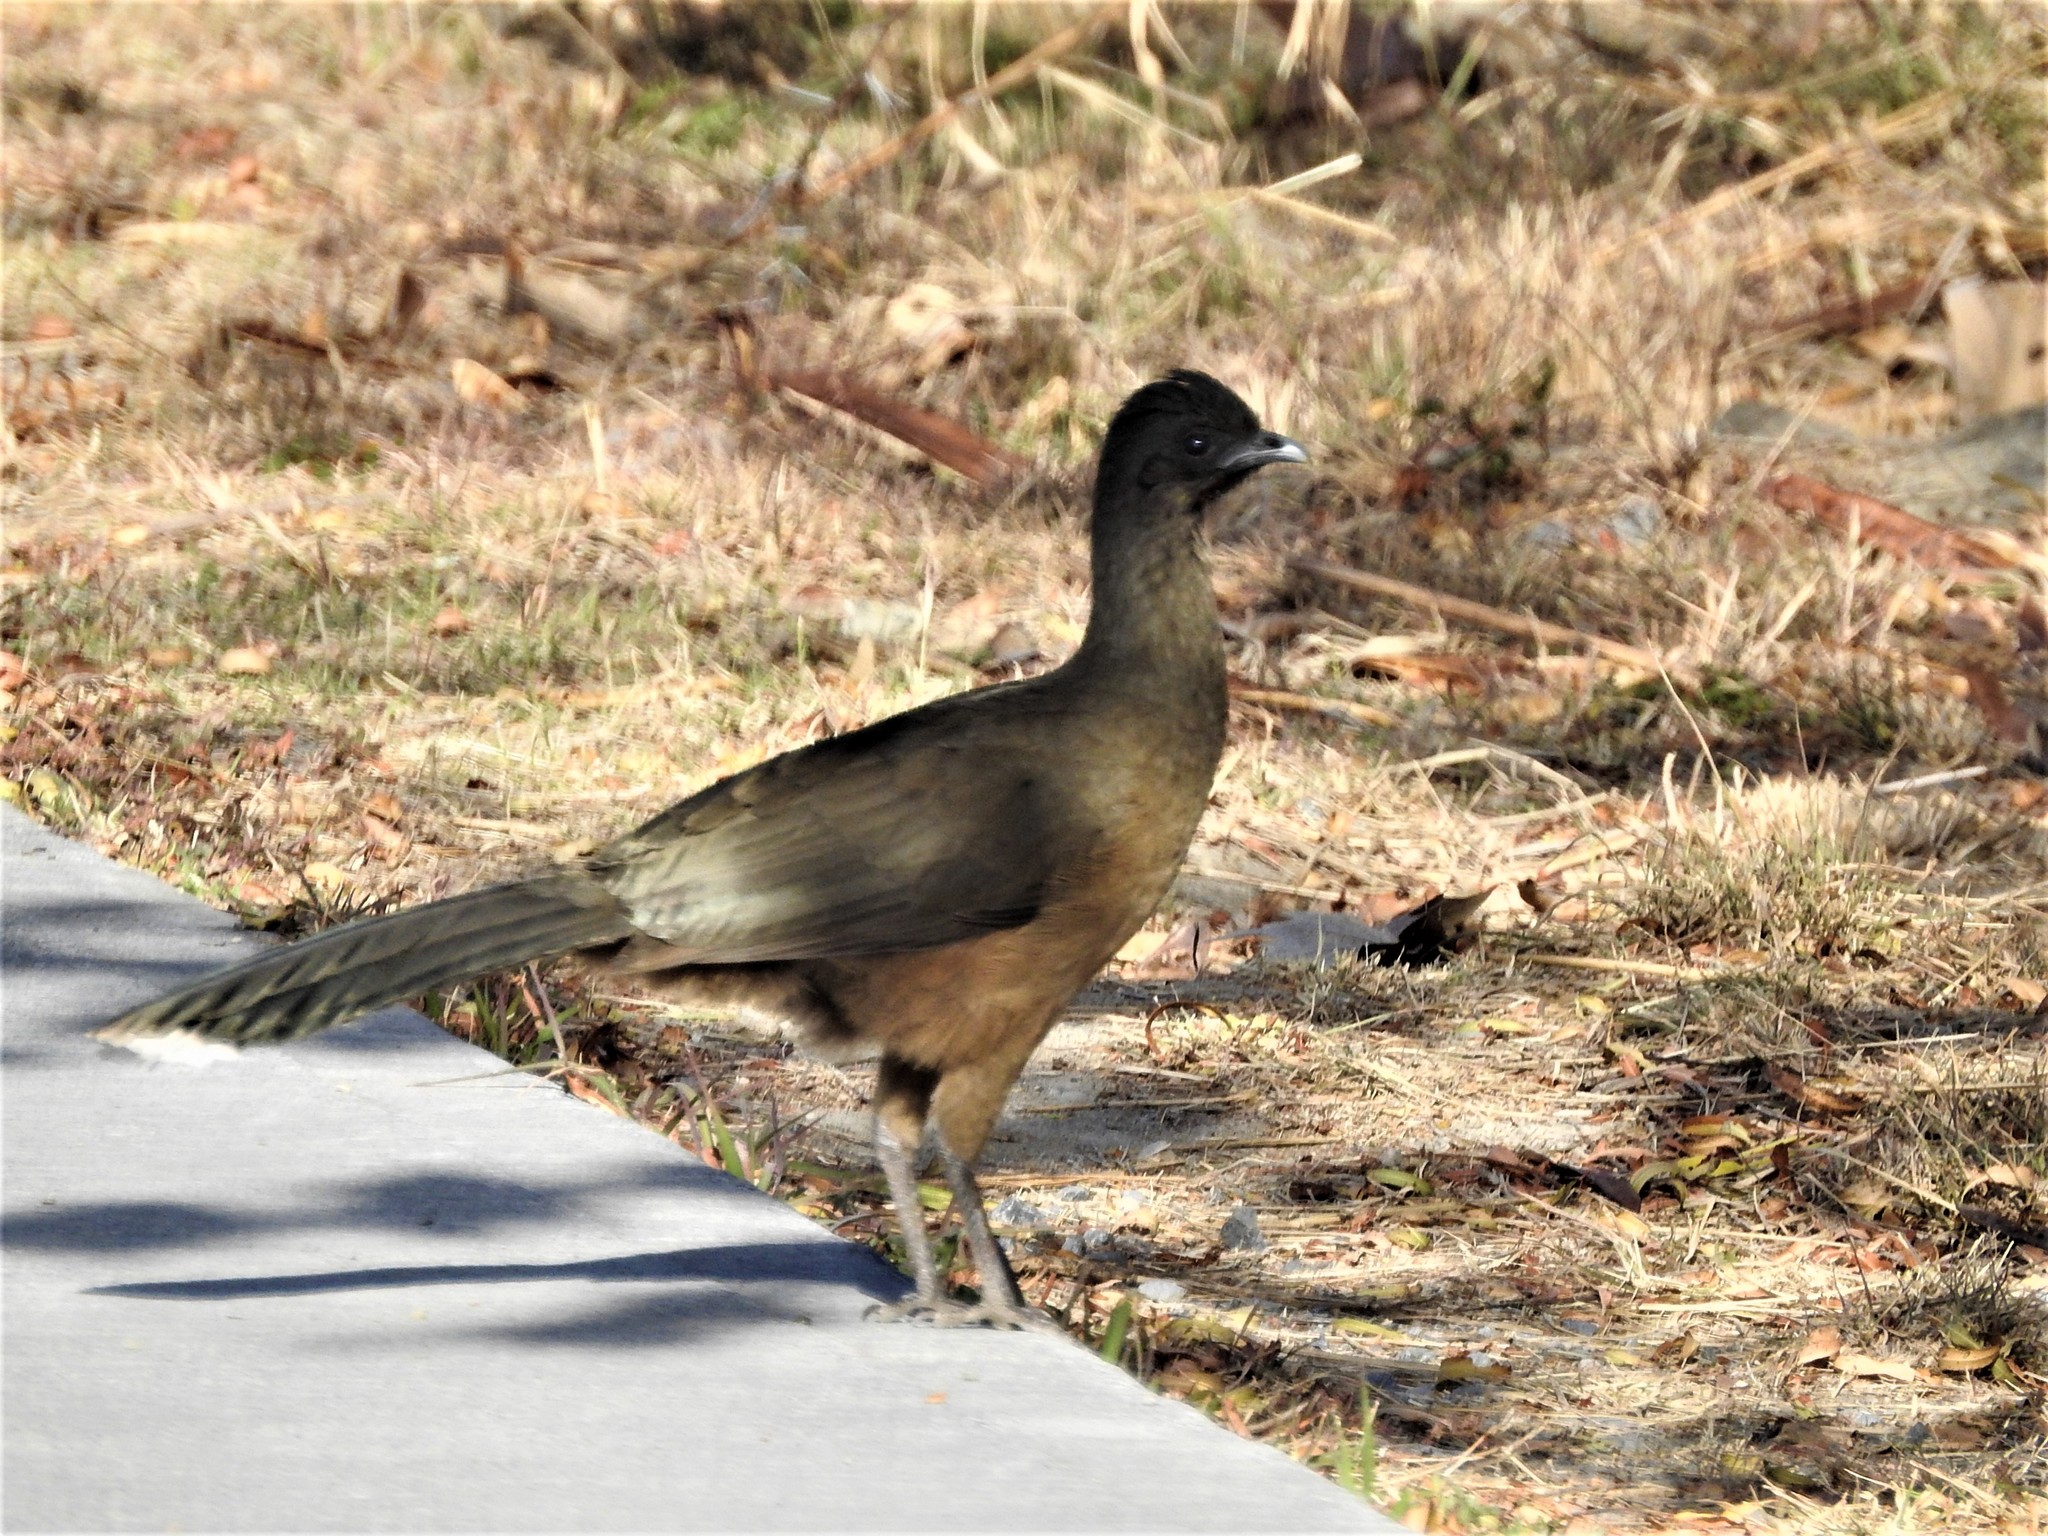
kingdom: Animalia
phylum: Chordata
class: Aves
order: Galliformes
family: Cracidae
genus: Ortalis
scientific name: Ortalis vetula
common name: Plain chachalaca
